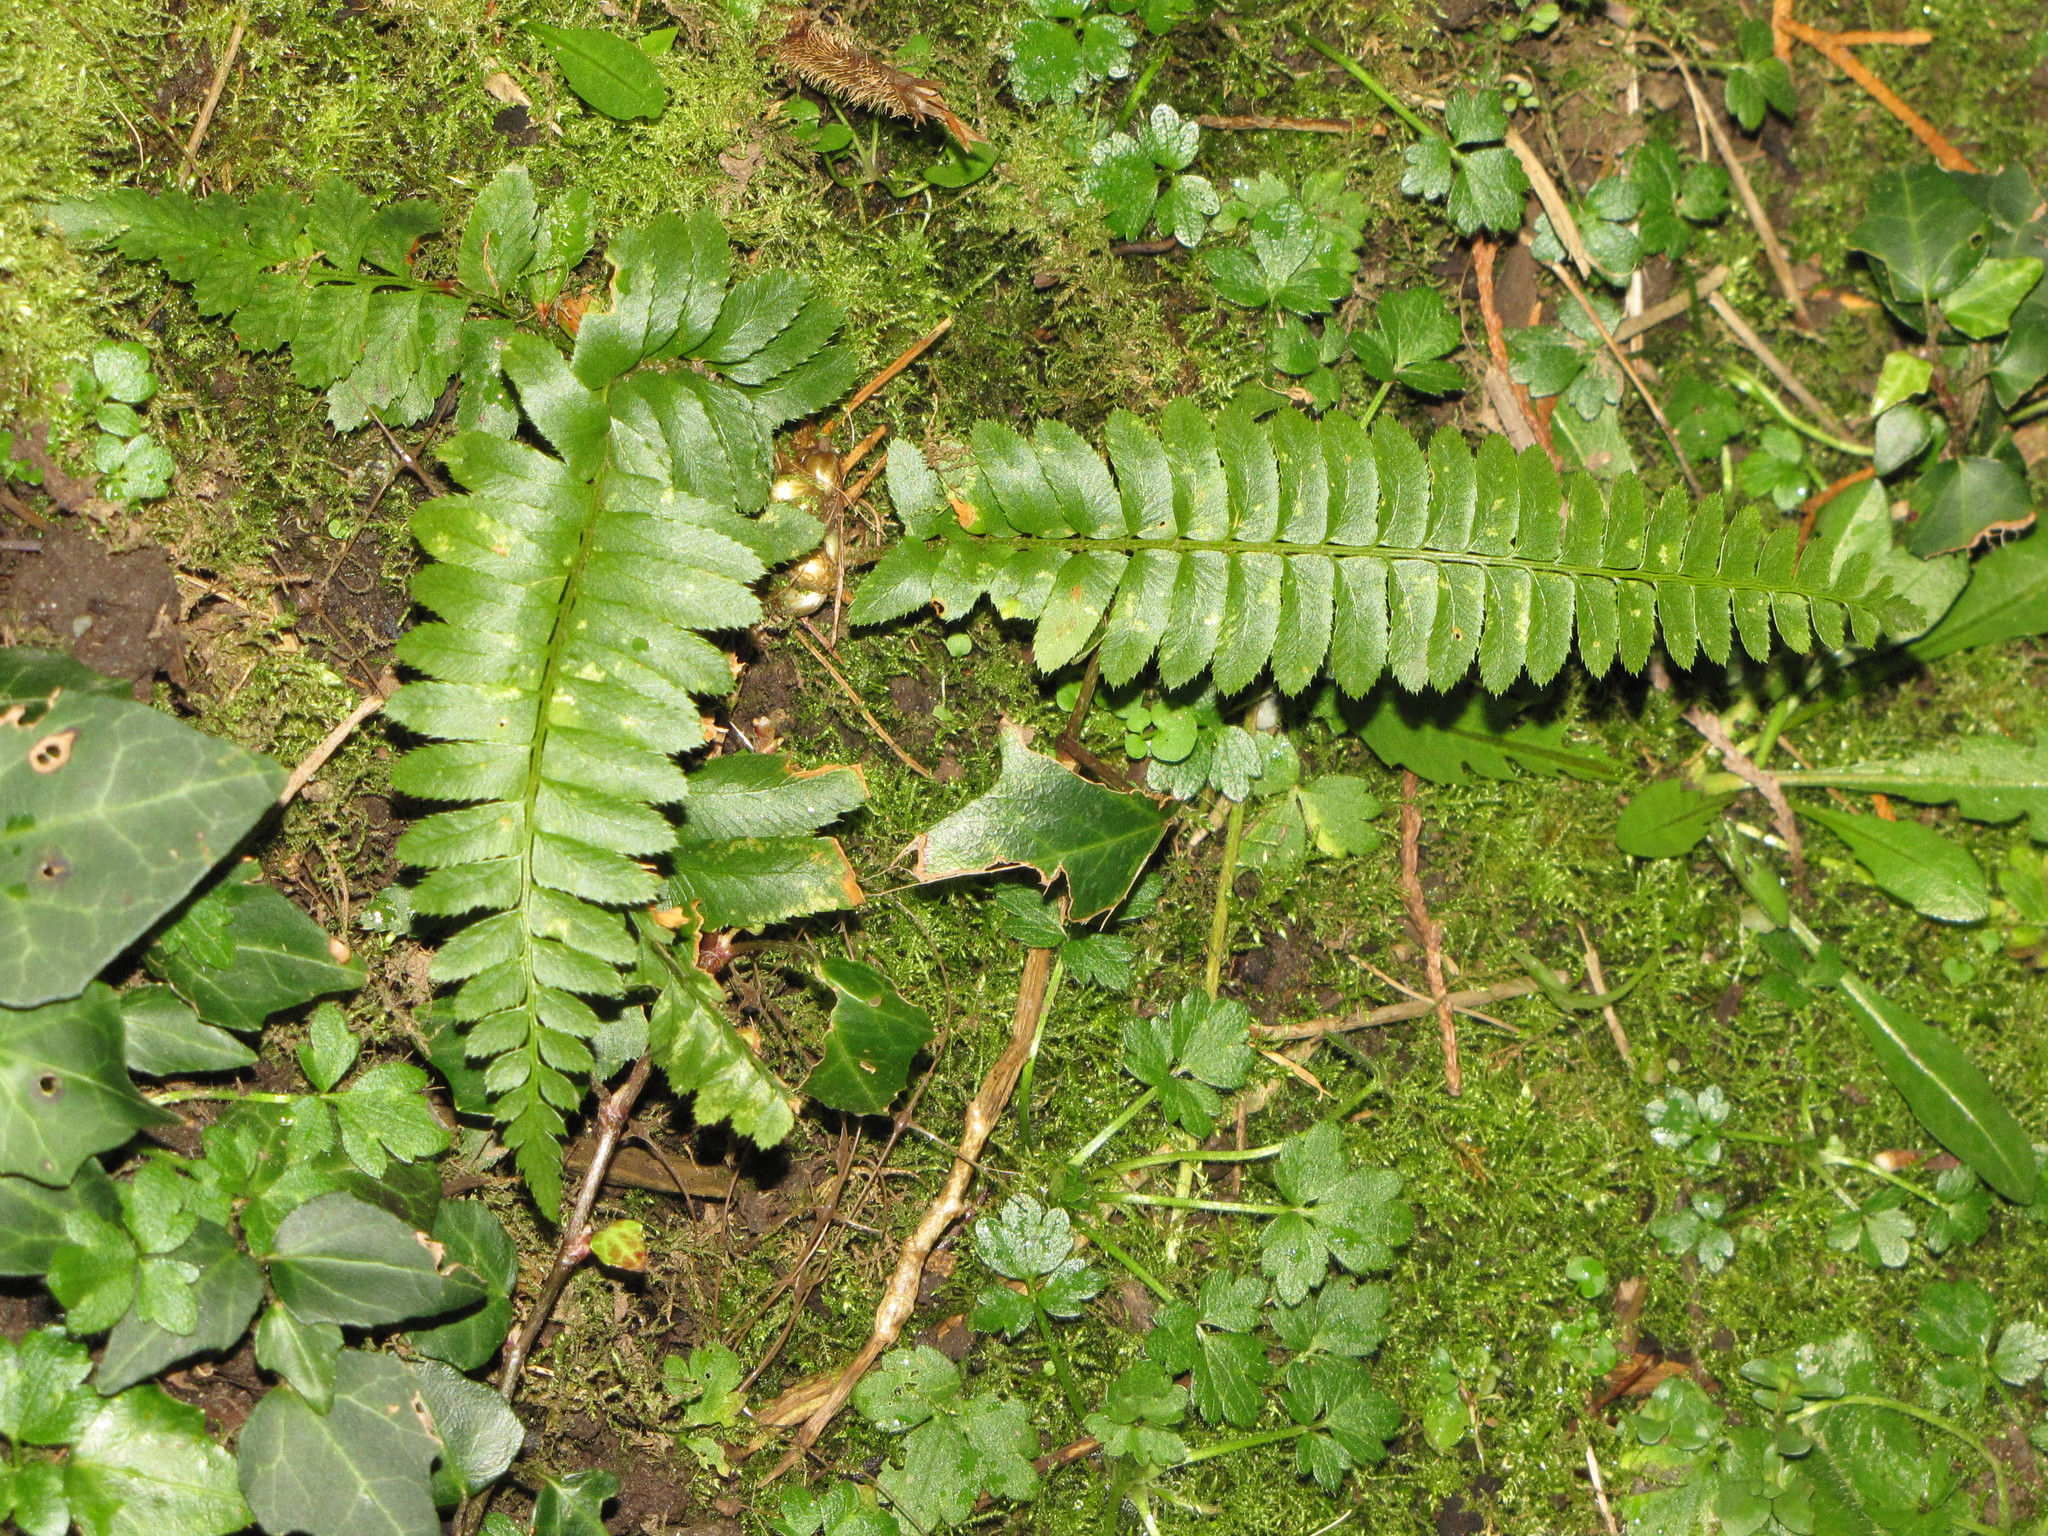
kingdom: Plantae
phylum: Tracheophyta
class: Polypodiopsida
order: Polypodiales
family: Dryopteridaceae
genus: Polystichum
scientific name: Polystichum munitum
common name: Western sword-fern
